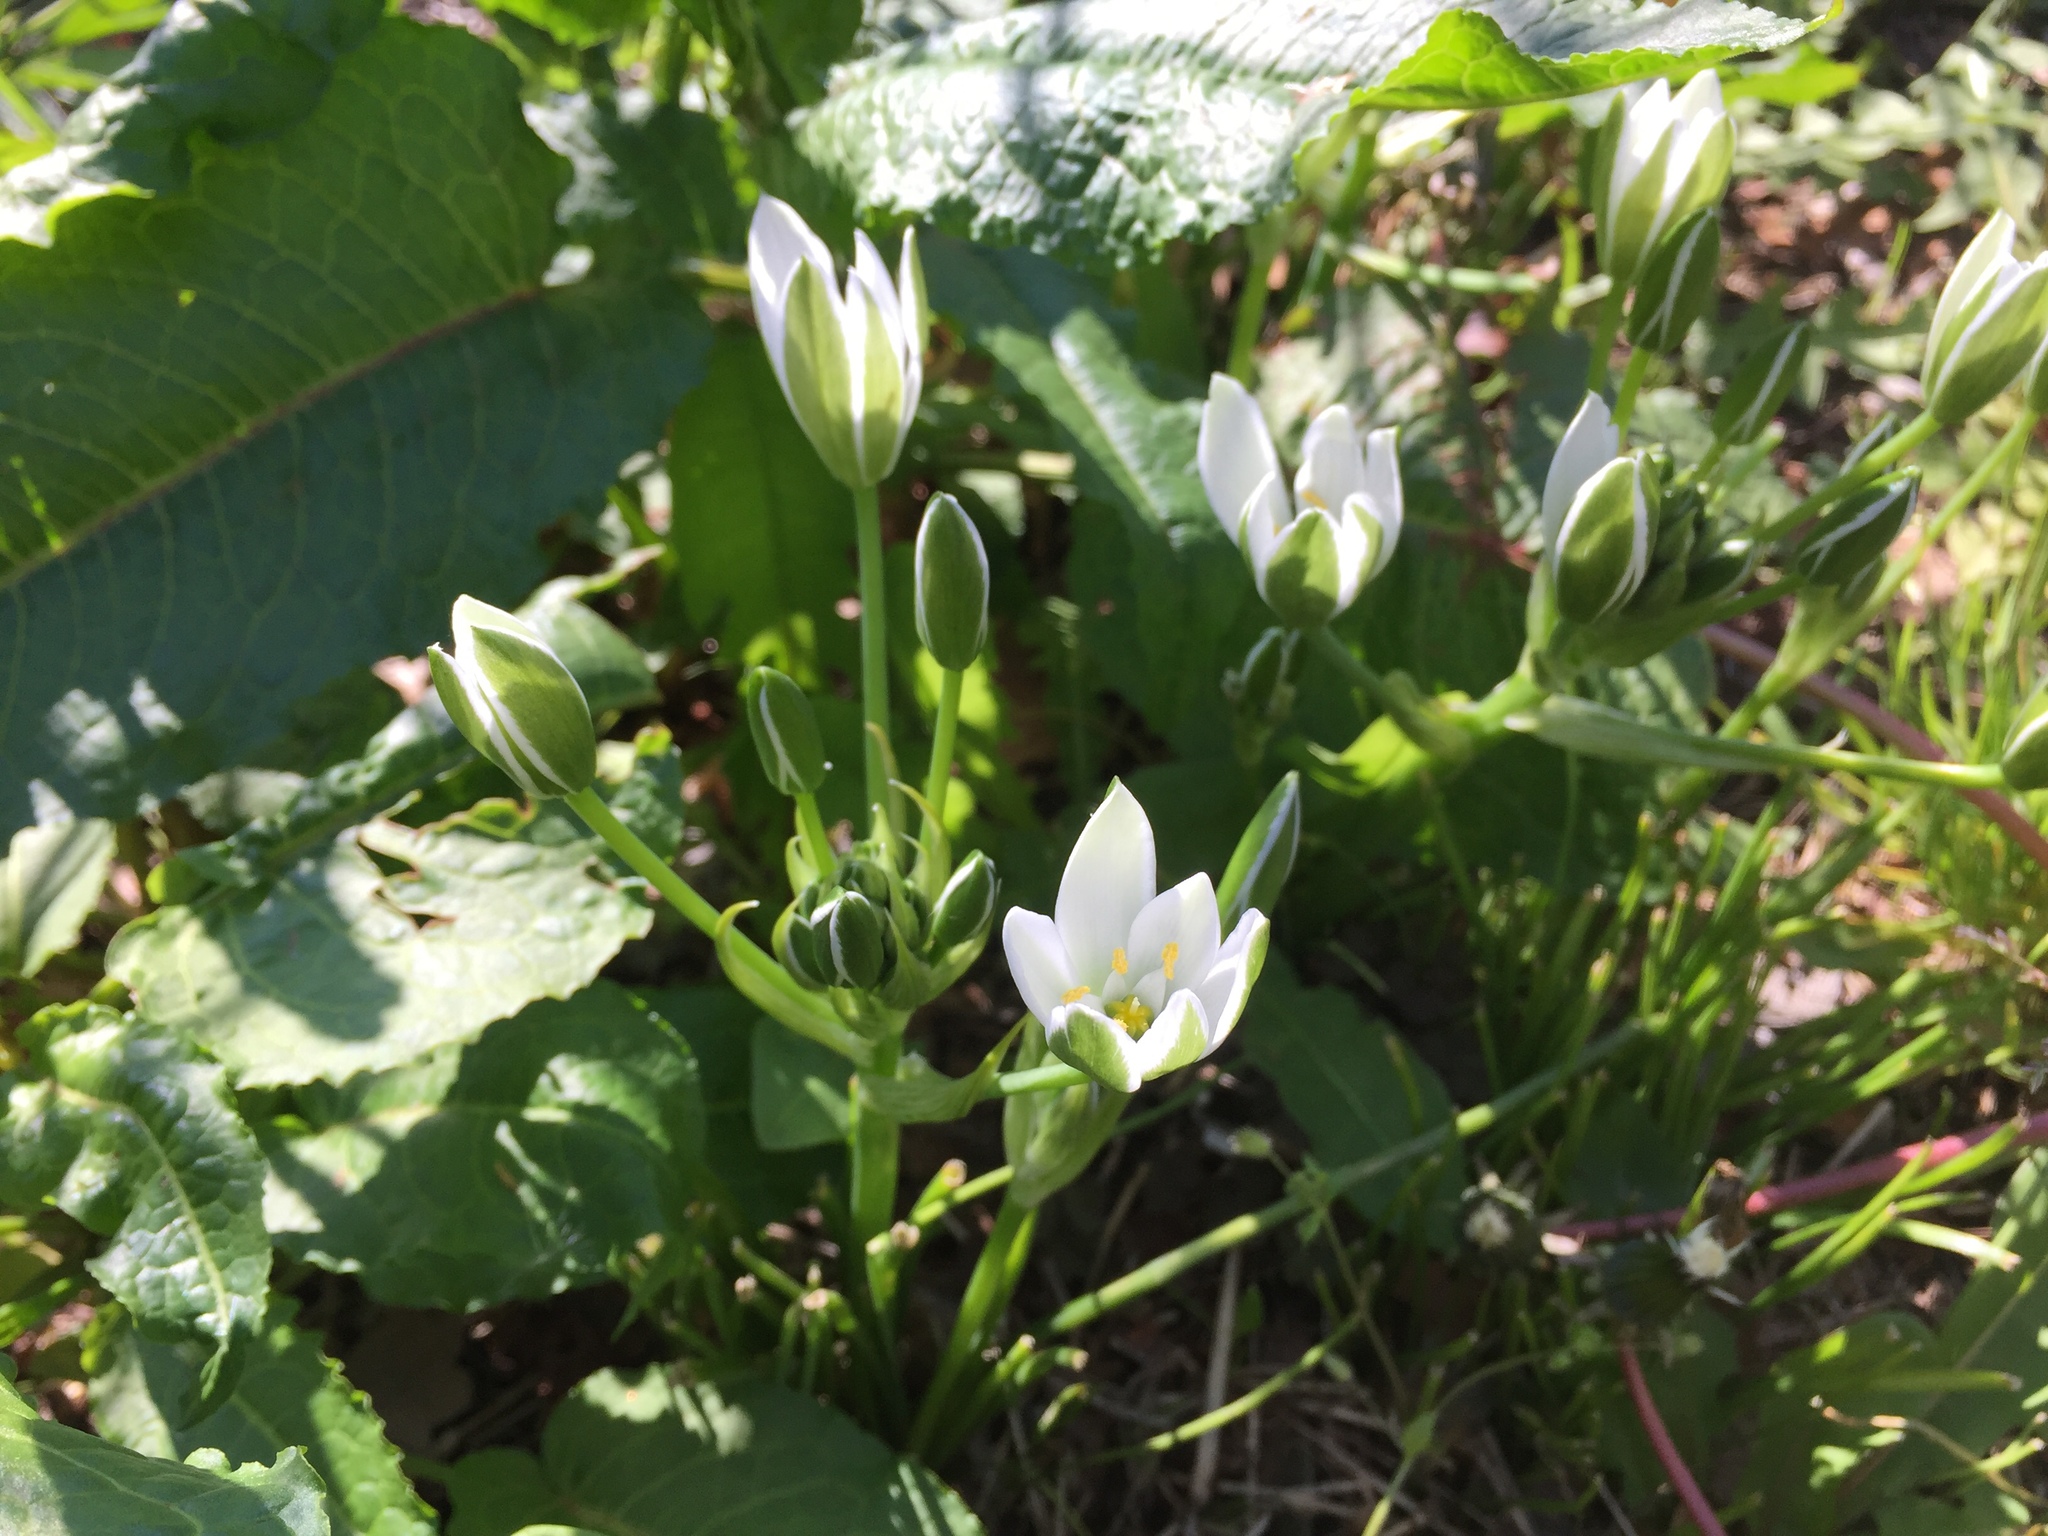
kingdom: Plantae
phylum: Tracheophyta
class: Liliopsida
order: Asparagales
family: Asparagaceae
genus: Ornithogalum
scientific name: Ornithogalum umbellatum
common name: Garden star-of-bethlehem
